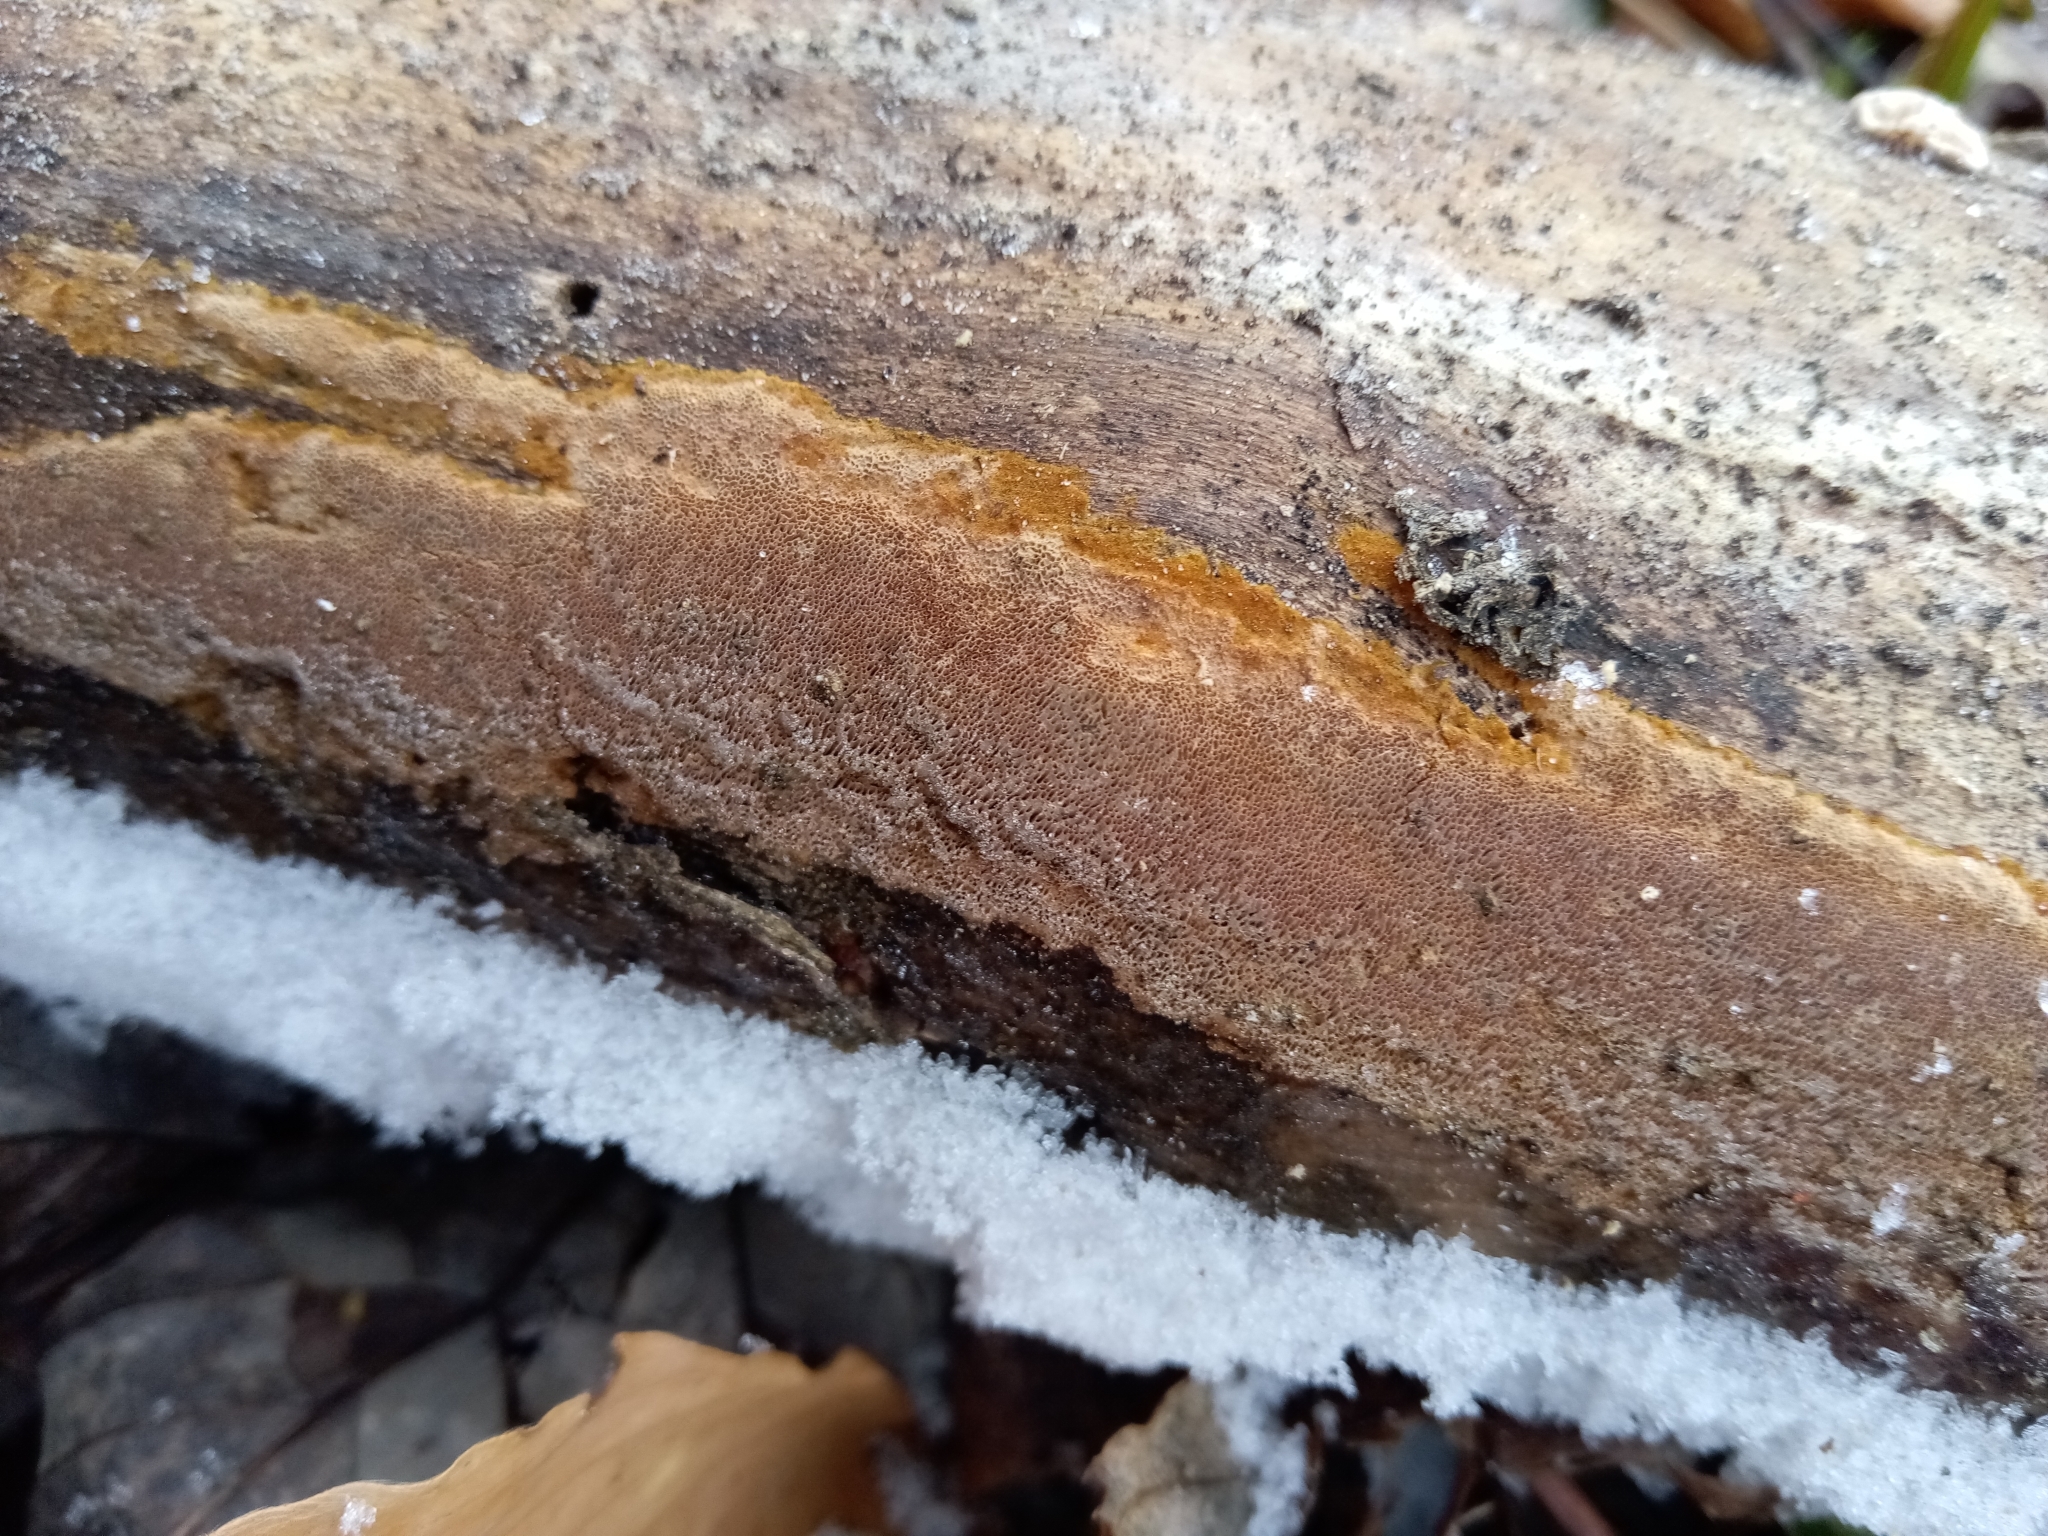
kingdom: Fungi
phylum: Basidiomycota
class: Agaricomycetes
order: Hymenochaetales
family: Hymenochaetaceae
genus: Fuscoporia
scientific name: Fuscoporia ferruginosa
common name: Rusty porecrust
